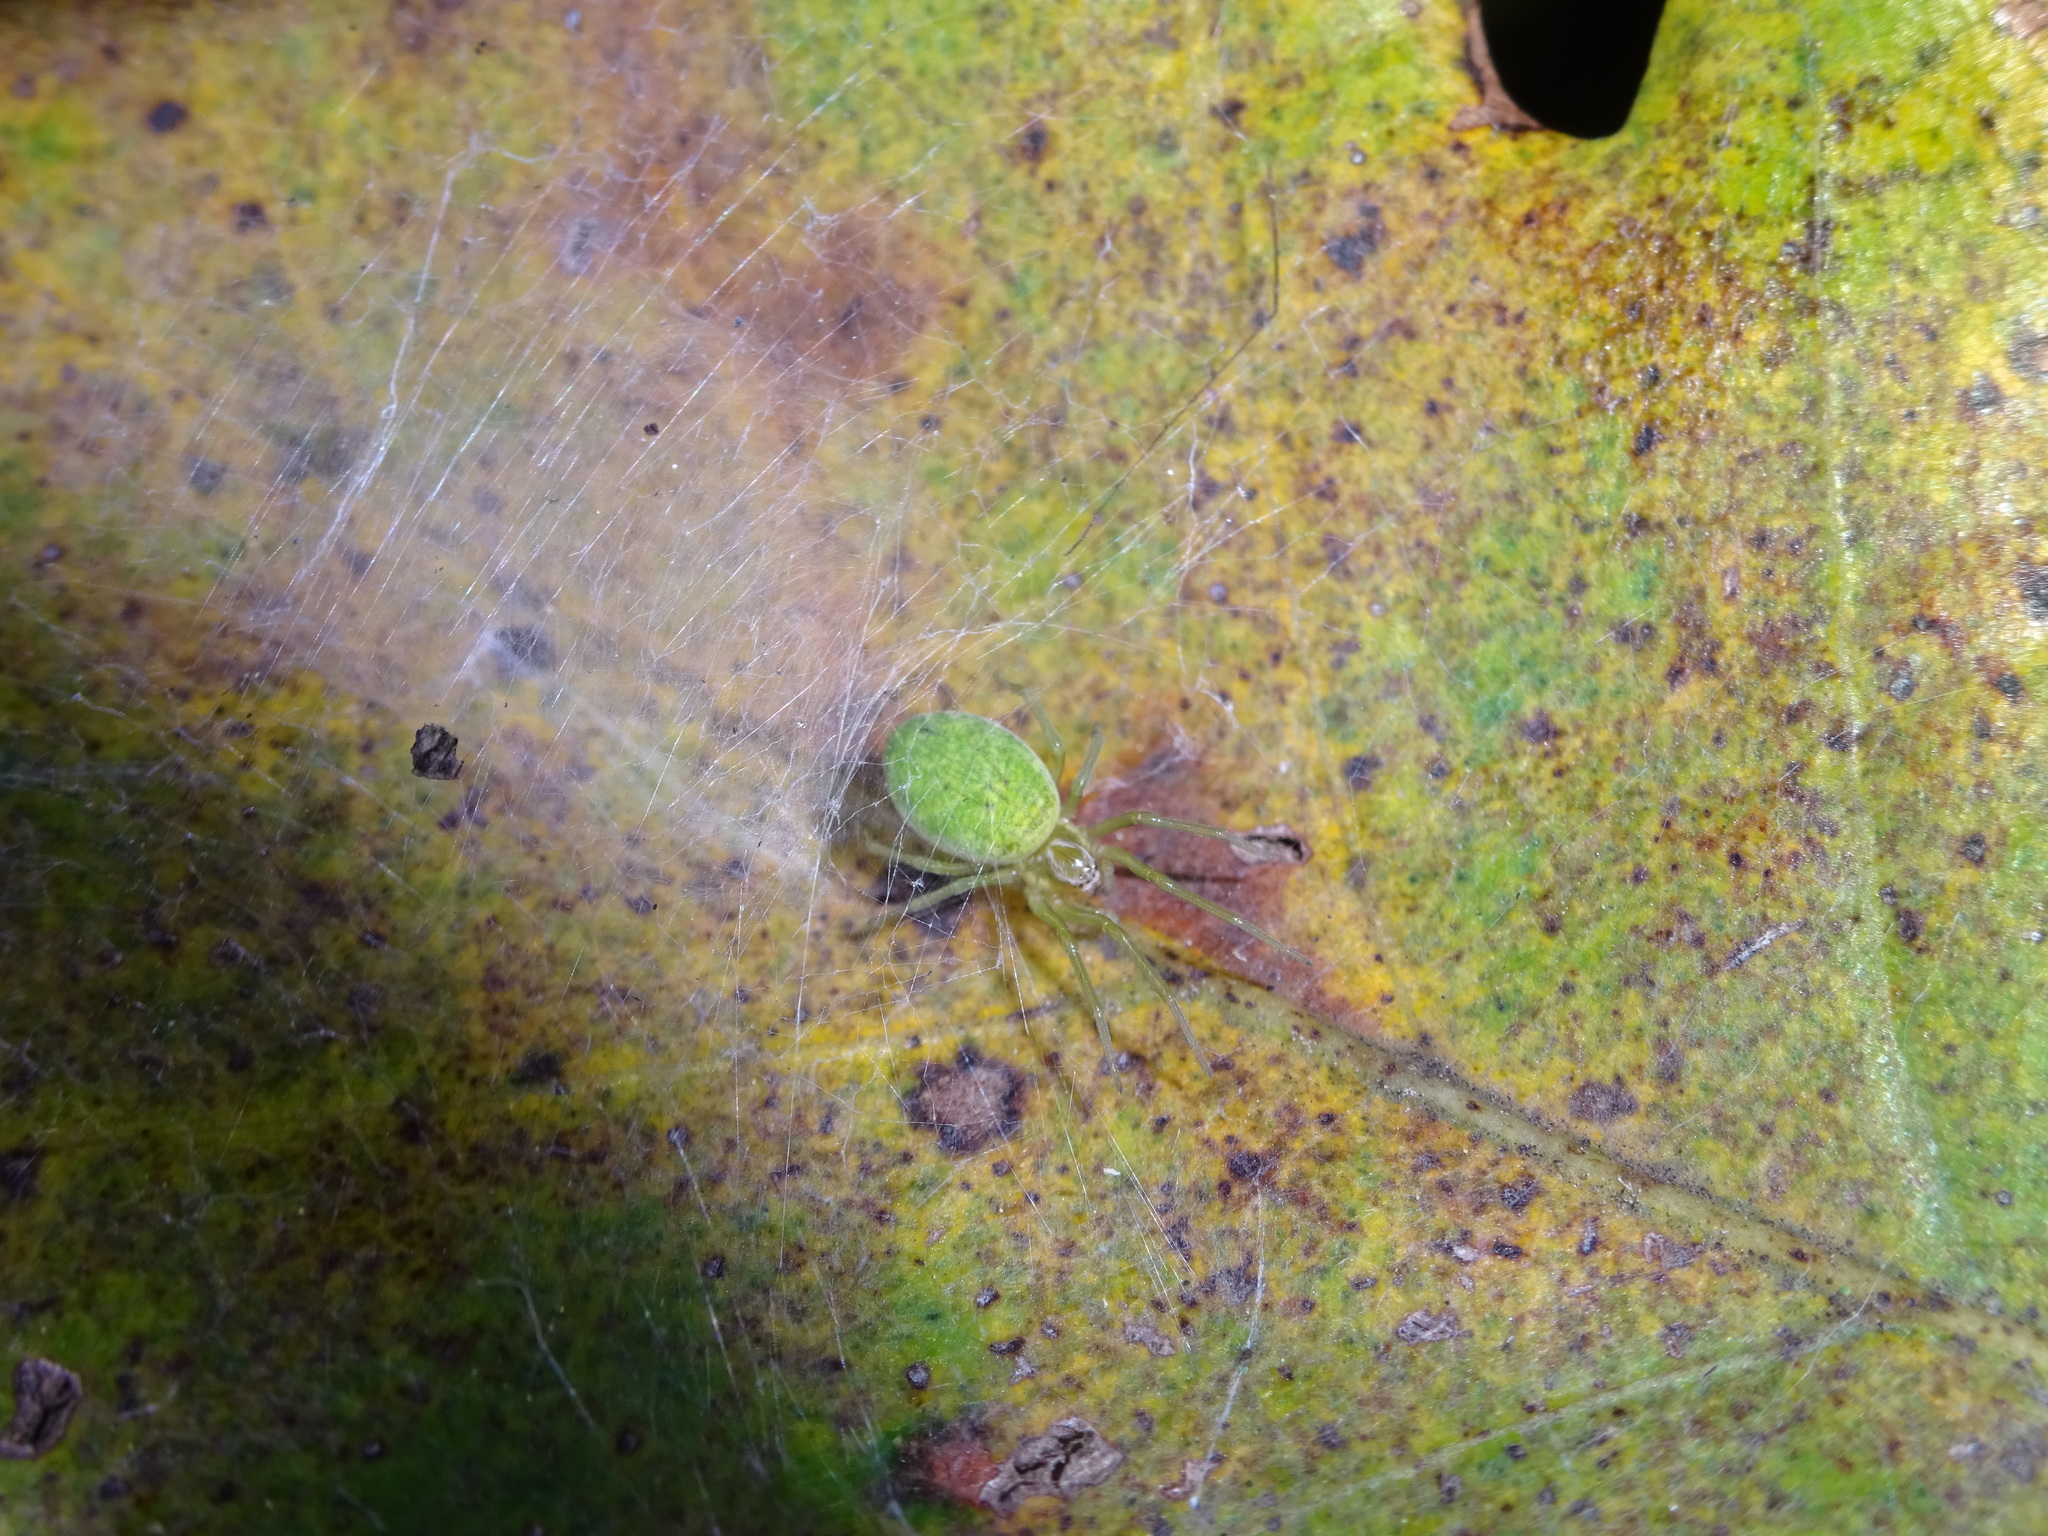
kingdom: Animalia
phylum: Arthropoda
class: Arachnida
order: Araneae
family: Dictynidae
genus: Nigma
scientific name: Nigma walckenaeri
